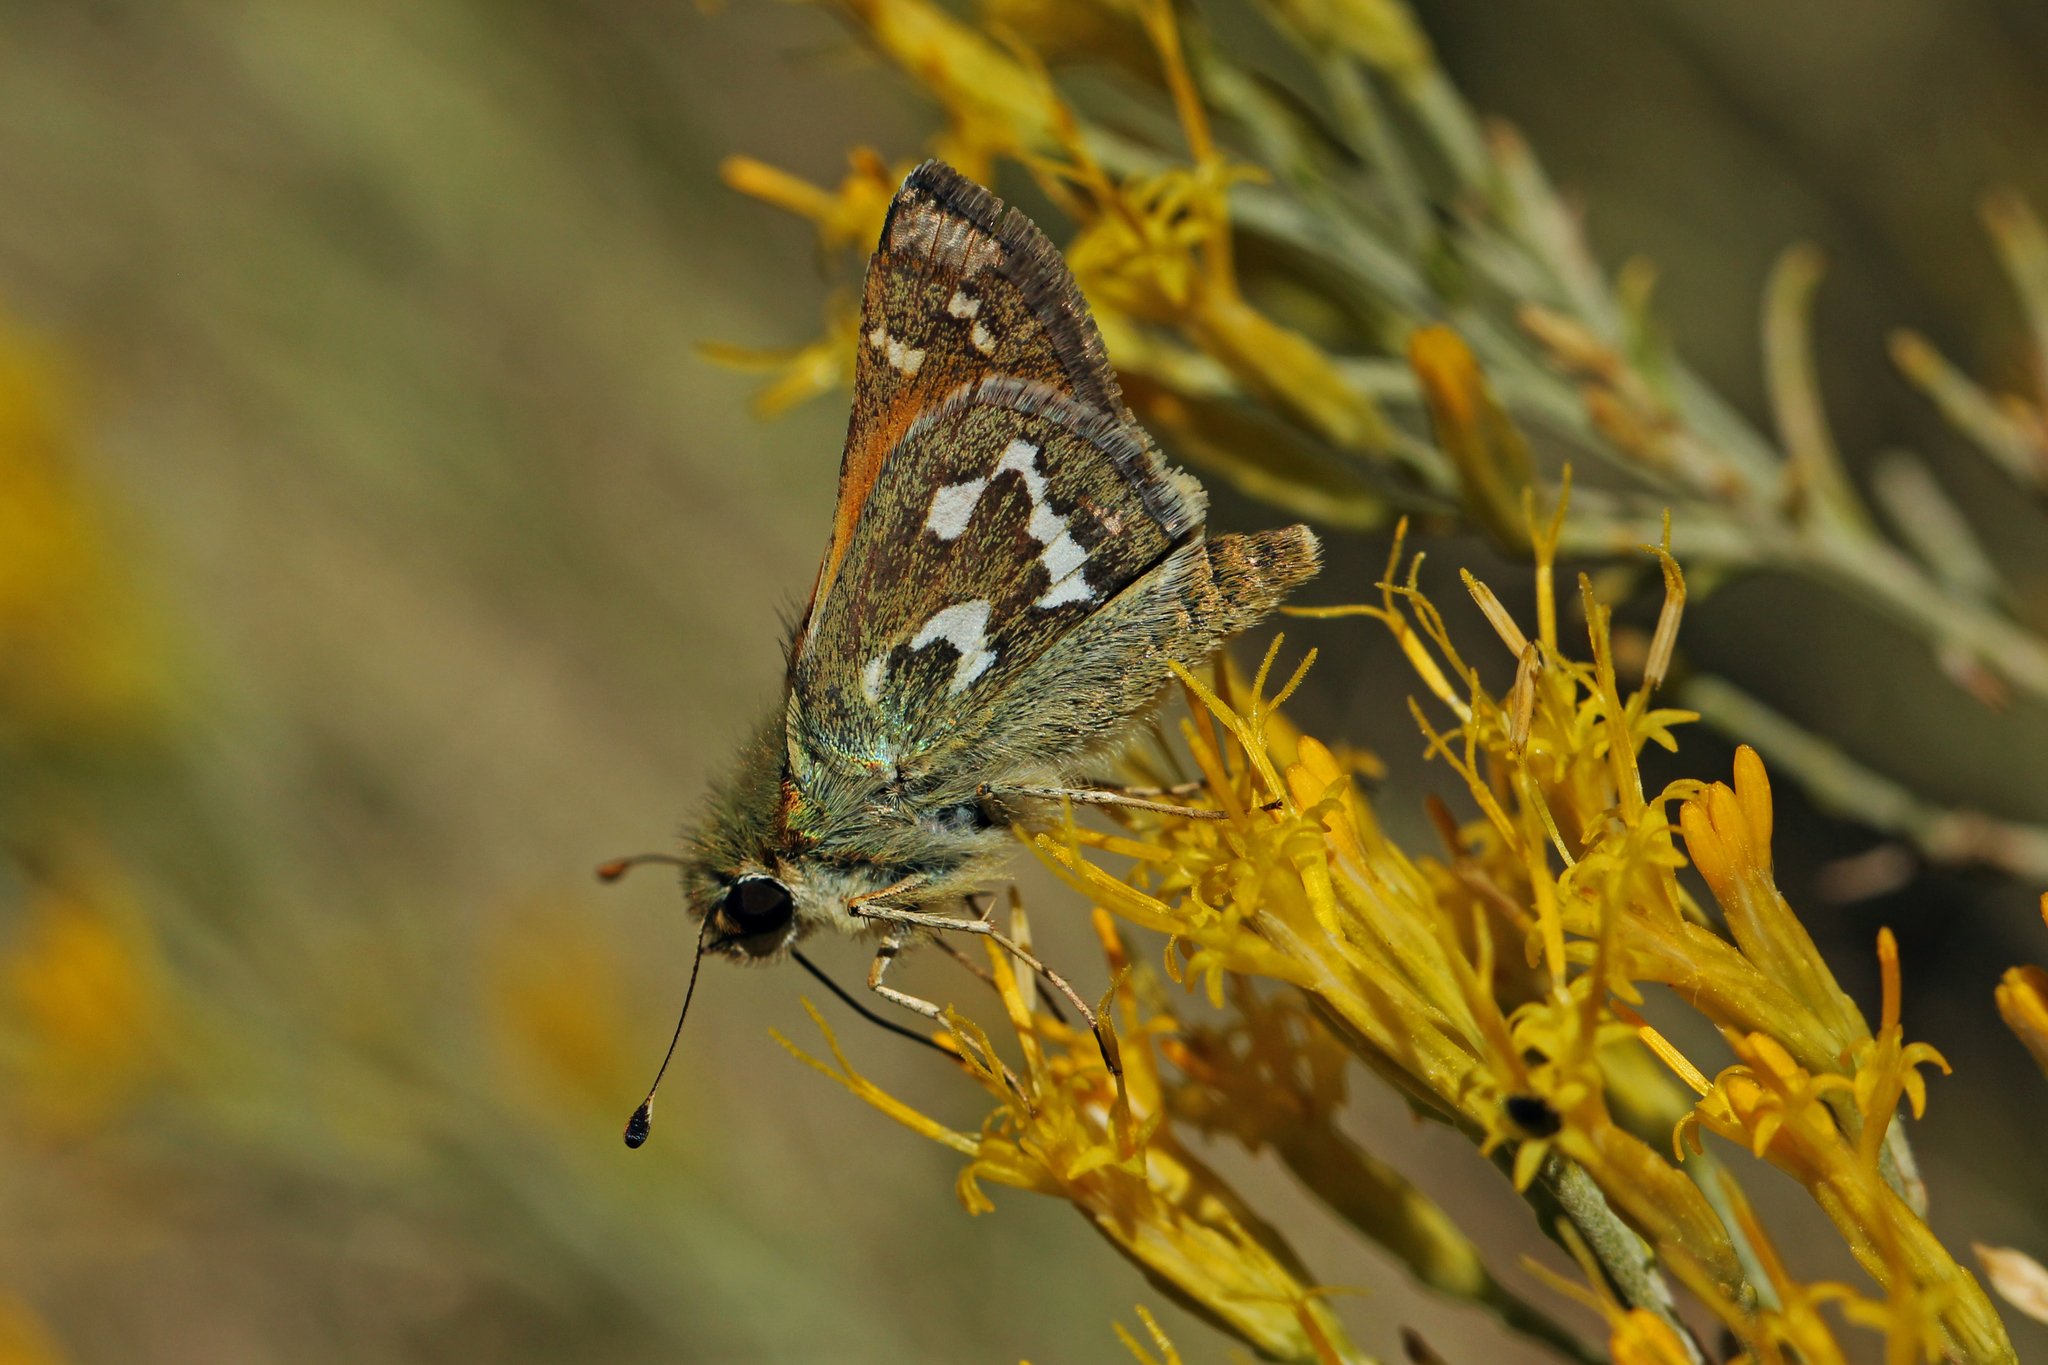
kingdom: Animalia
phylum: Arthropoda
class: Insecta
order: Lepidoptera
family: Hesperiidae
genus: Hesperia
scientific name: Hesperia comma
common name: Common branded skipper
